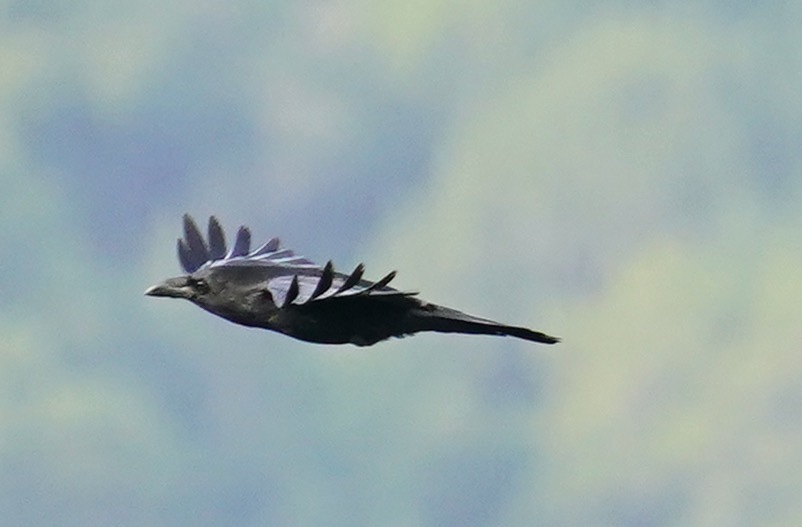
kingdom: Animalia
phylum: Chordata
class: Aves
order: Passeriformes
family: Corvidae
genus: Corvus
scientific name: Corvus corax
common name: Common raven
